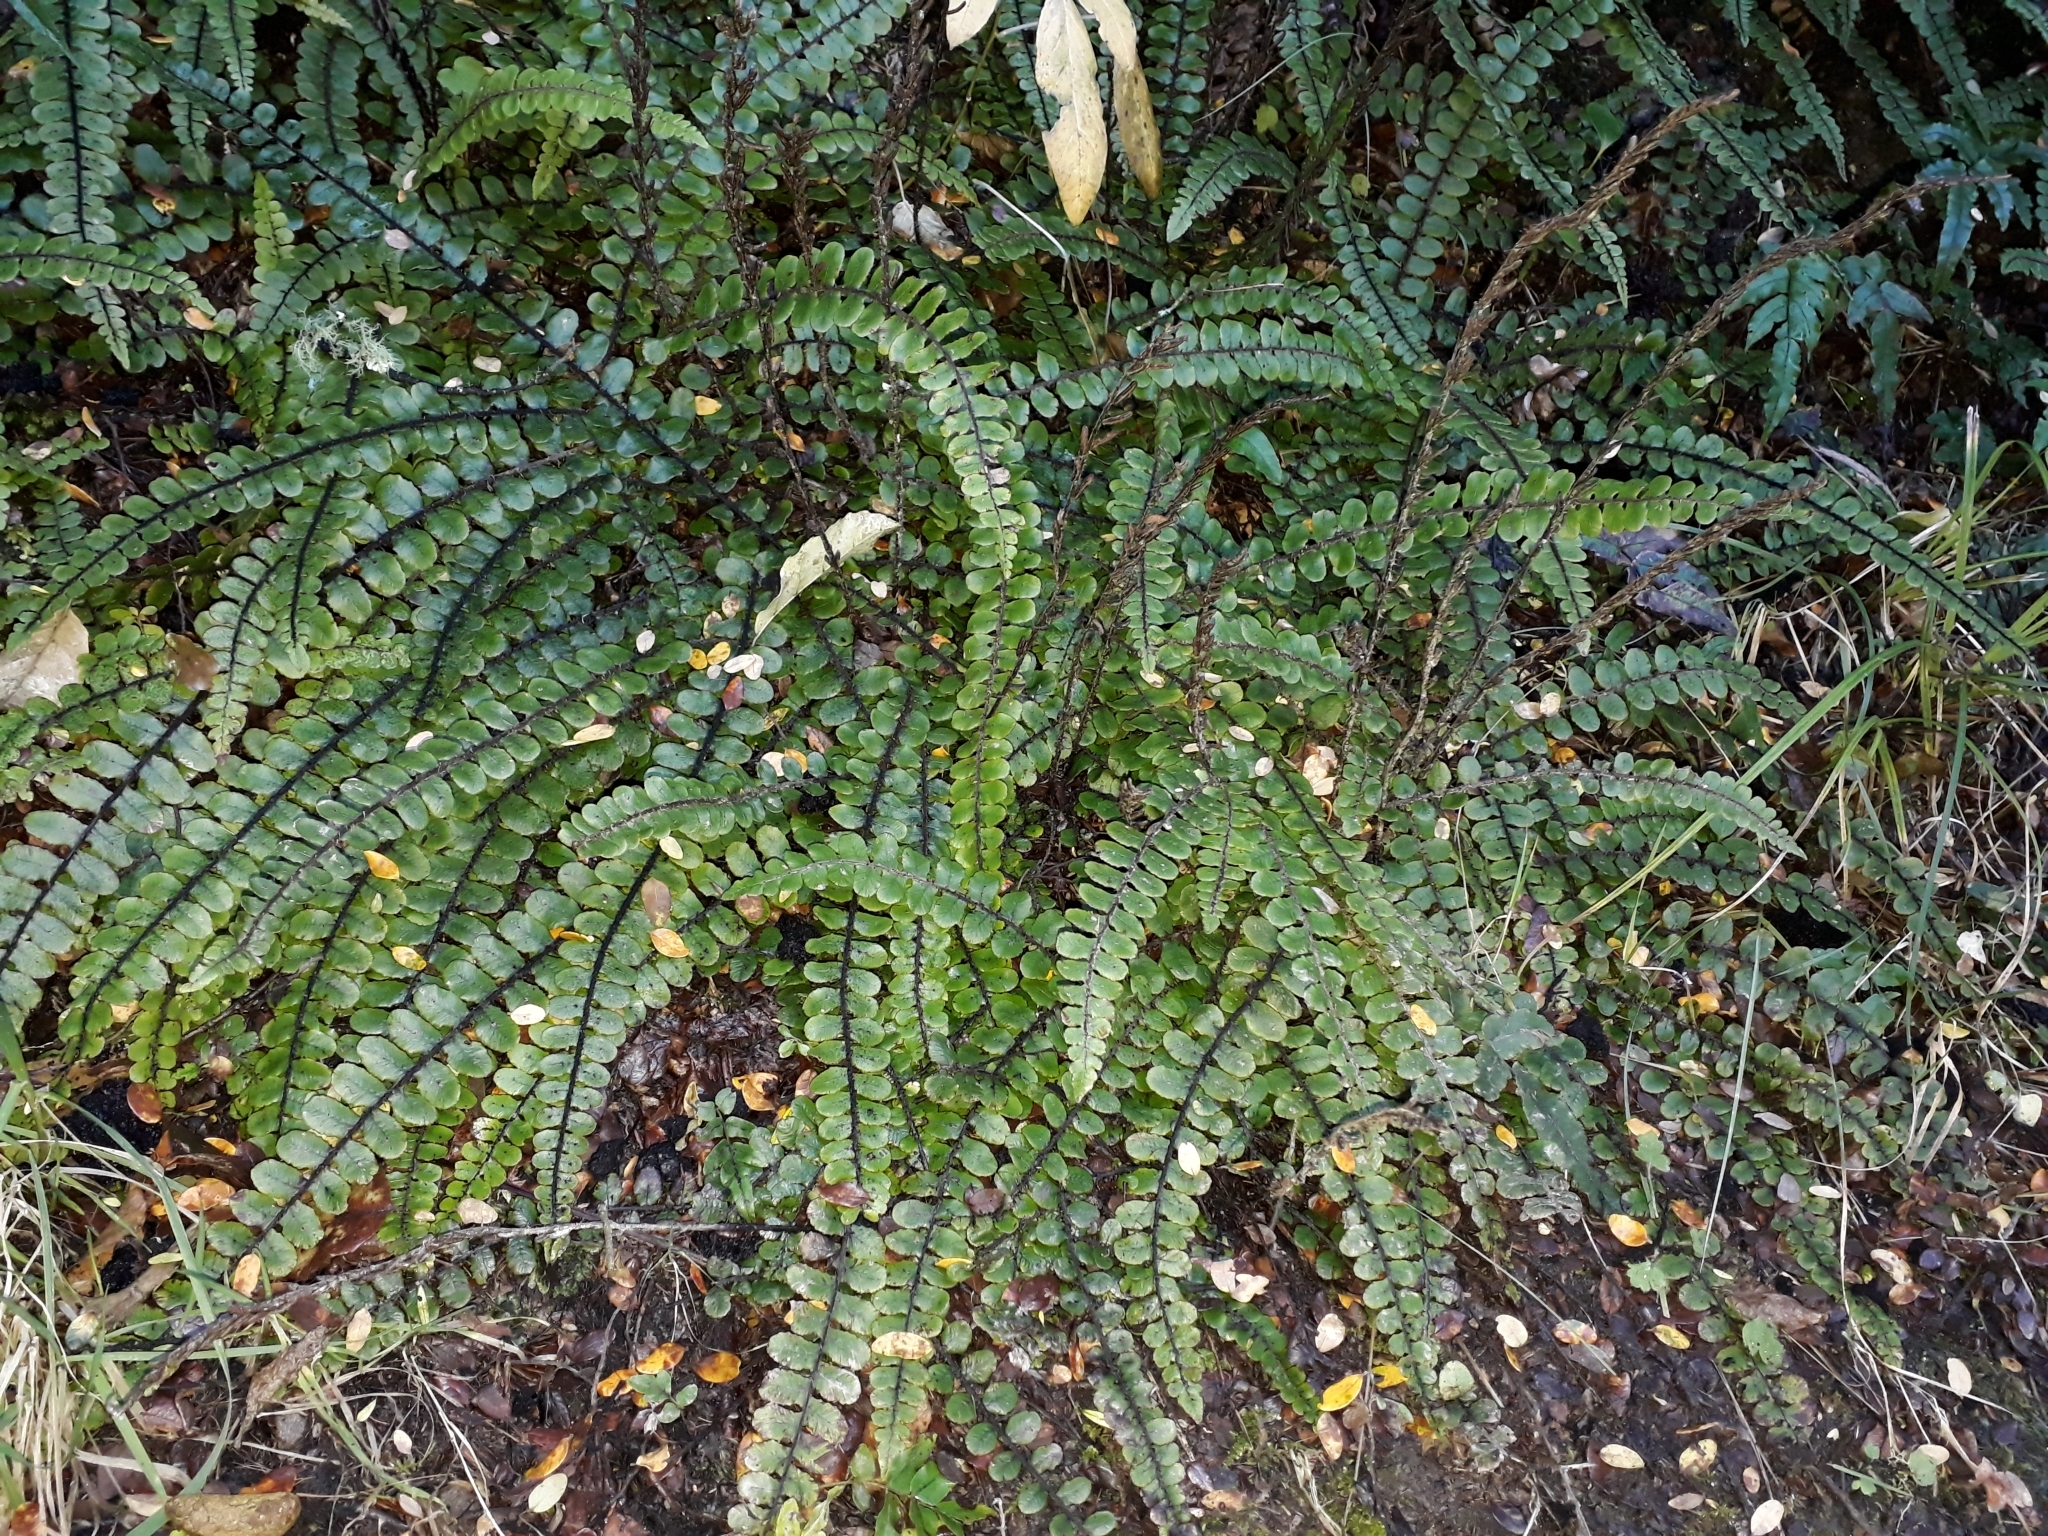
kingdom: Plantae
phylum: Tracheophyta
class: Polypodiopsida
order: Polypodiales
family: Blechnaceae
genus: Cranfillia
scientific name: Cranfillia fluviatilis
